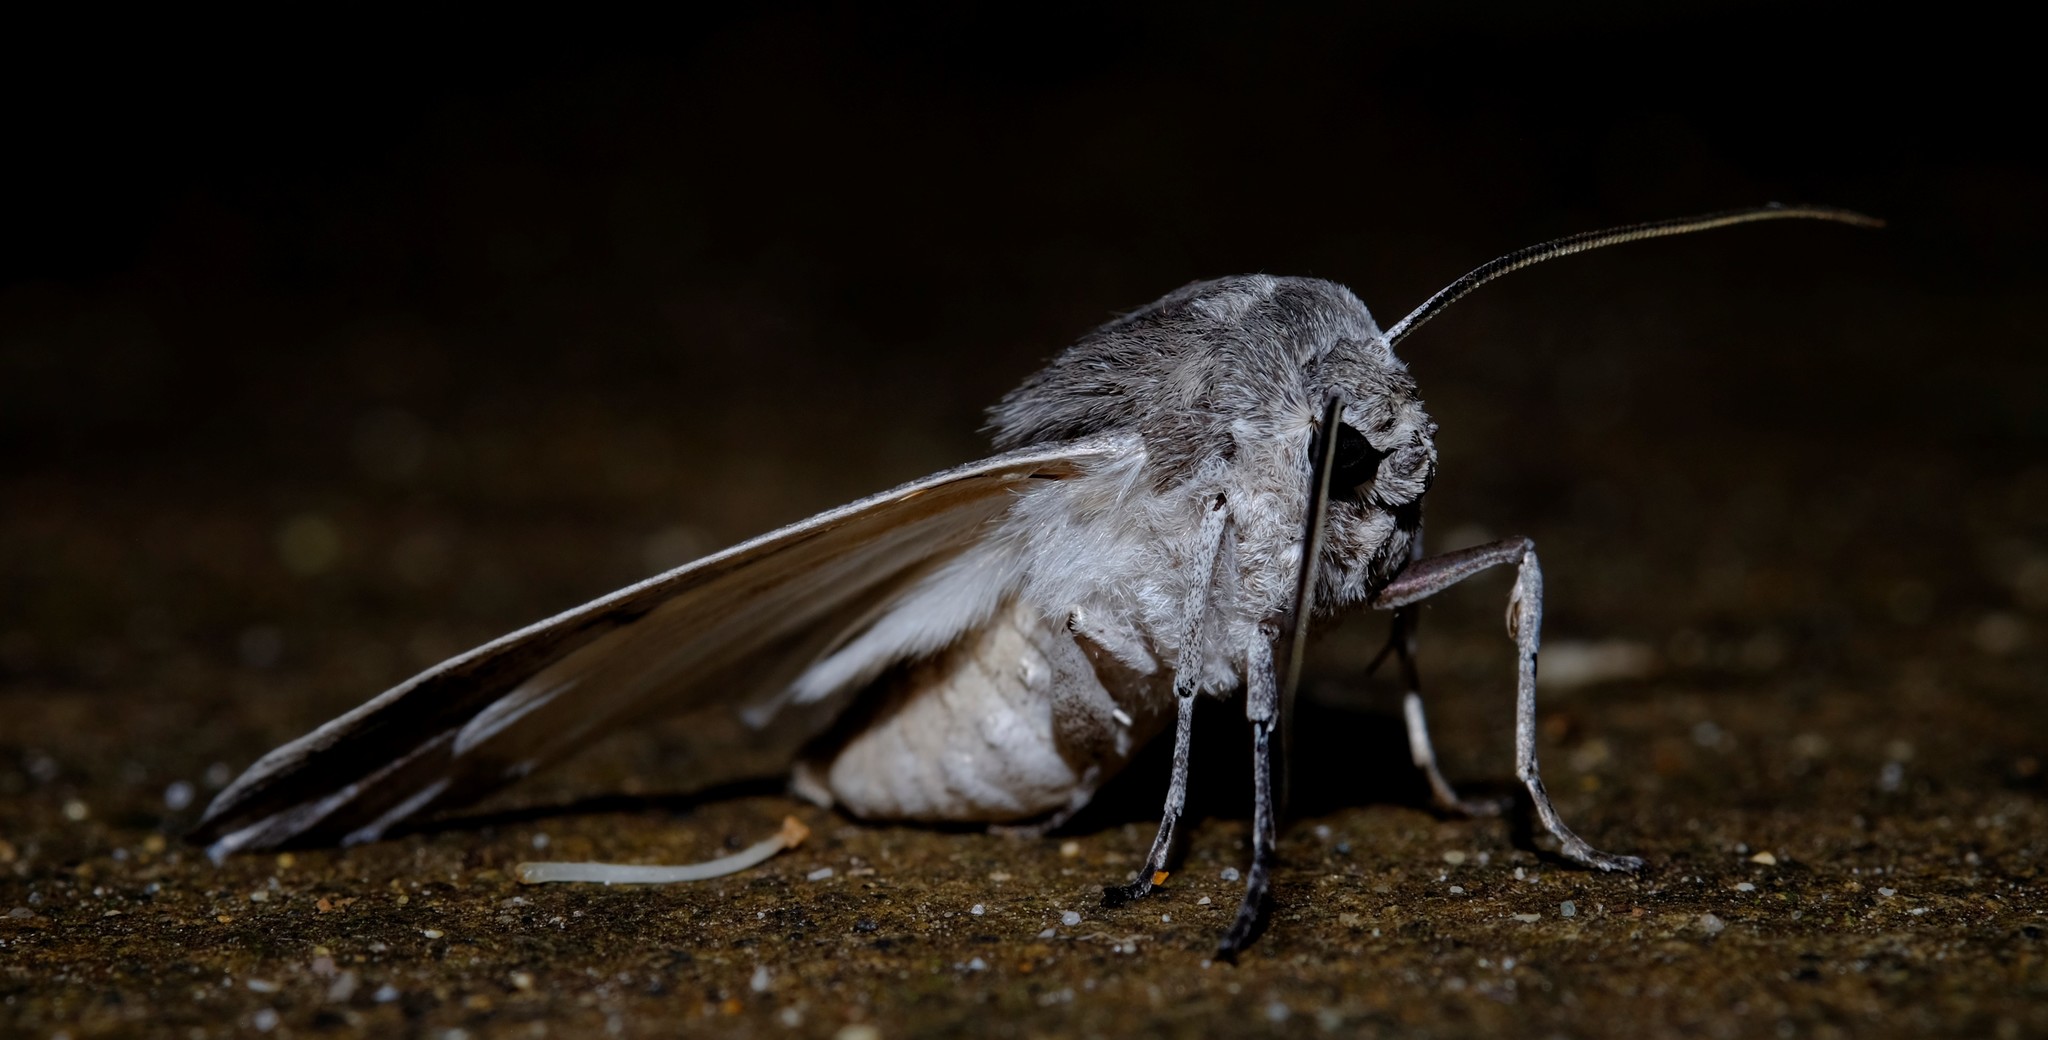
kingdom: Animalia
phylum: Arthropoda
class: Insecta
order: Lepidoptera
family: Geometridae
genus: Capusa
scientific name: Capusa cuculloides
